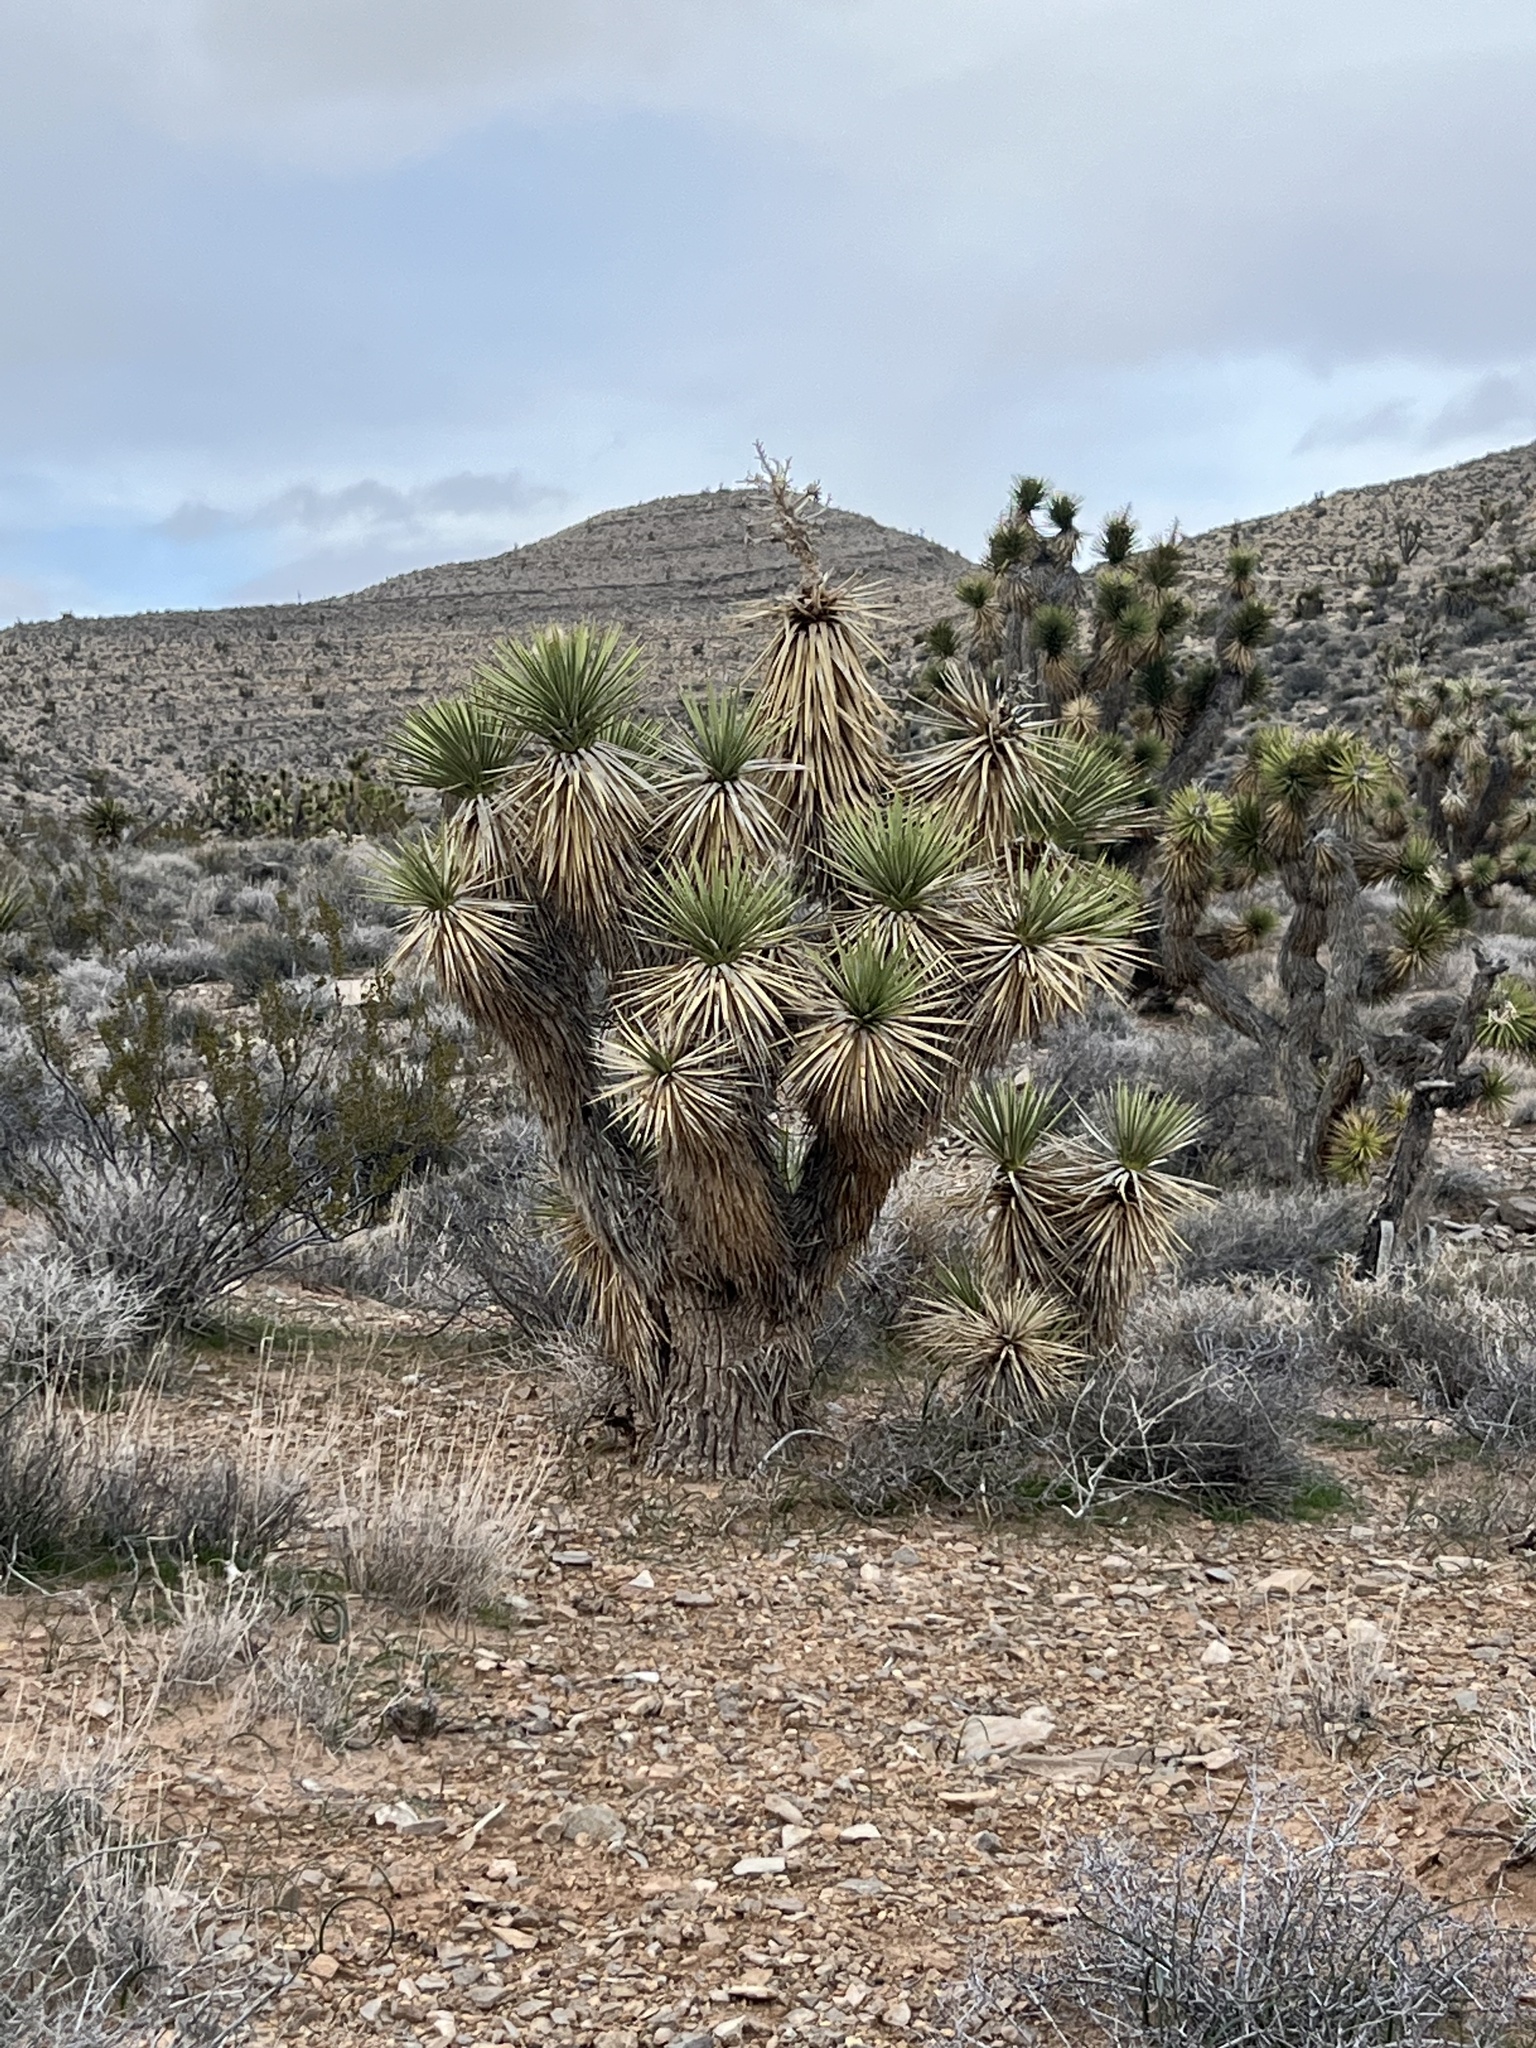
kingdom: Plantae
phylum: Tracheophyta
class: Liliopsida
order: Asparagales
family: Asparagaceae
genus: Yucca
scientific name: Yucca brevifolia
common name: Joshua tree
